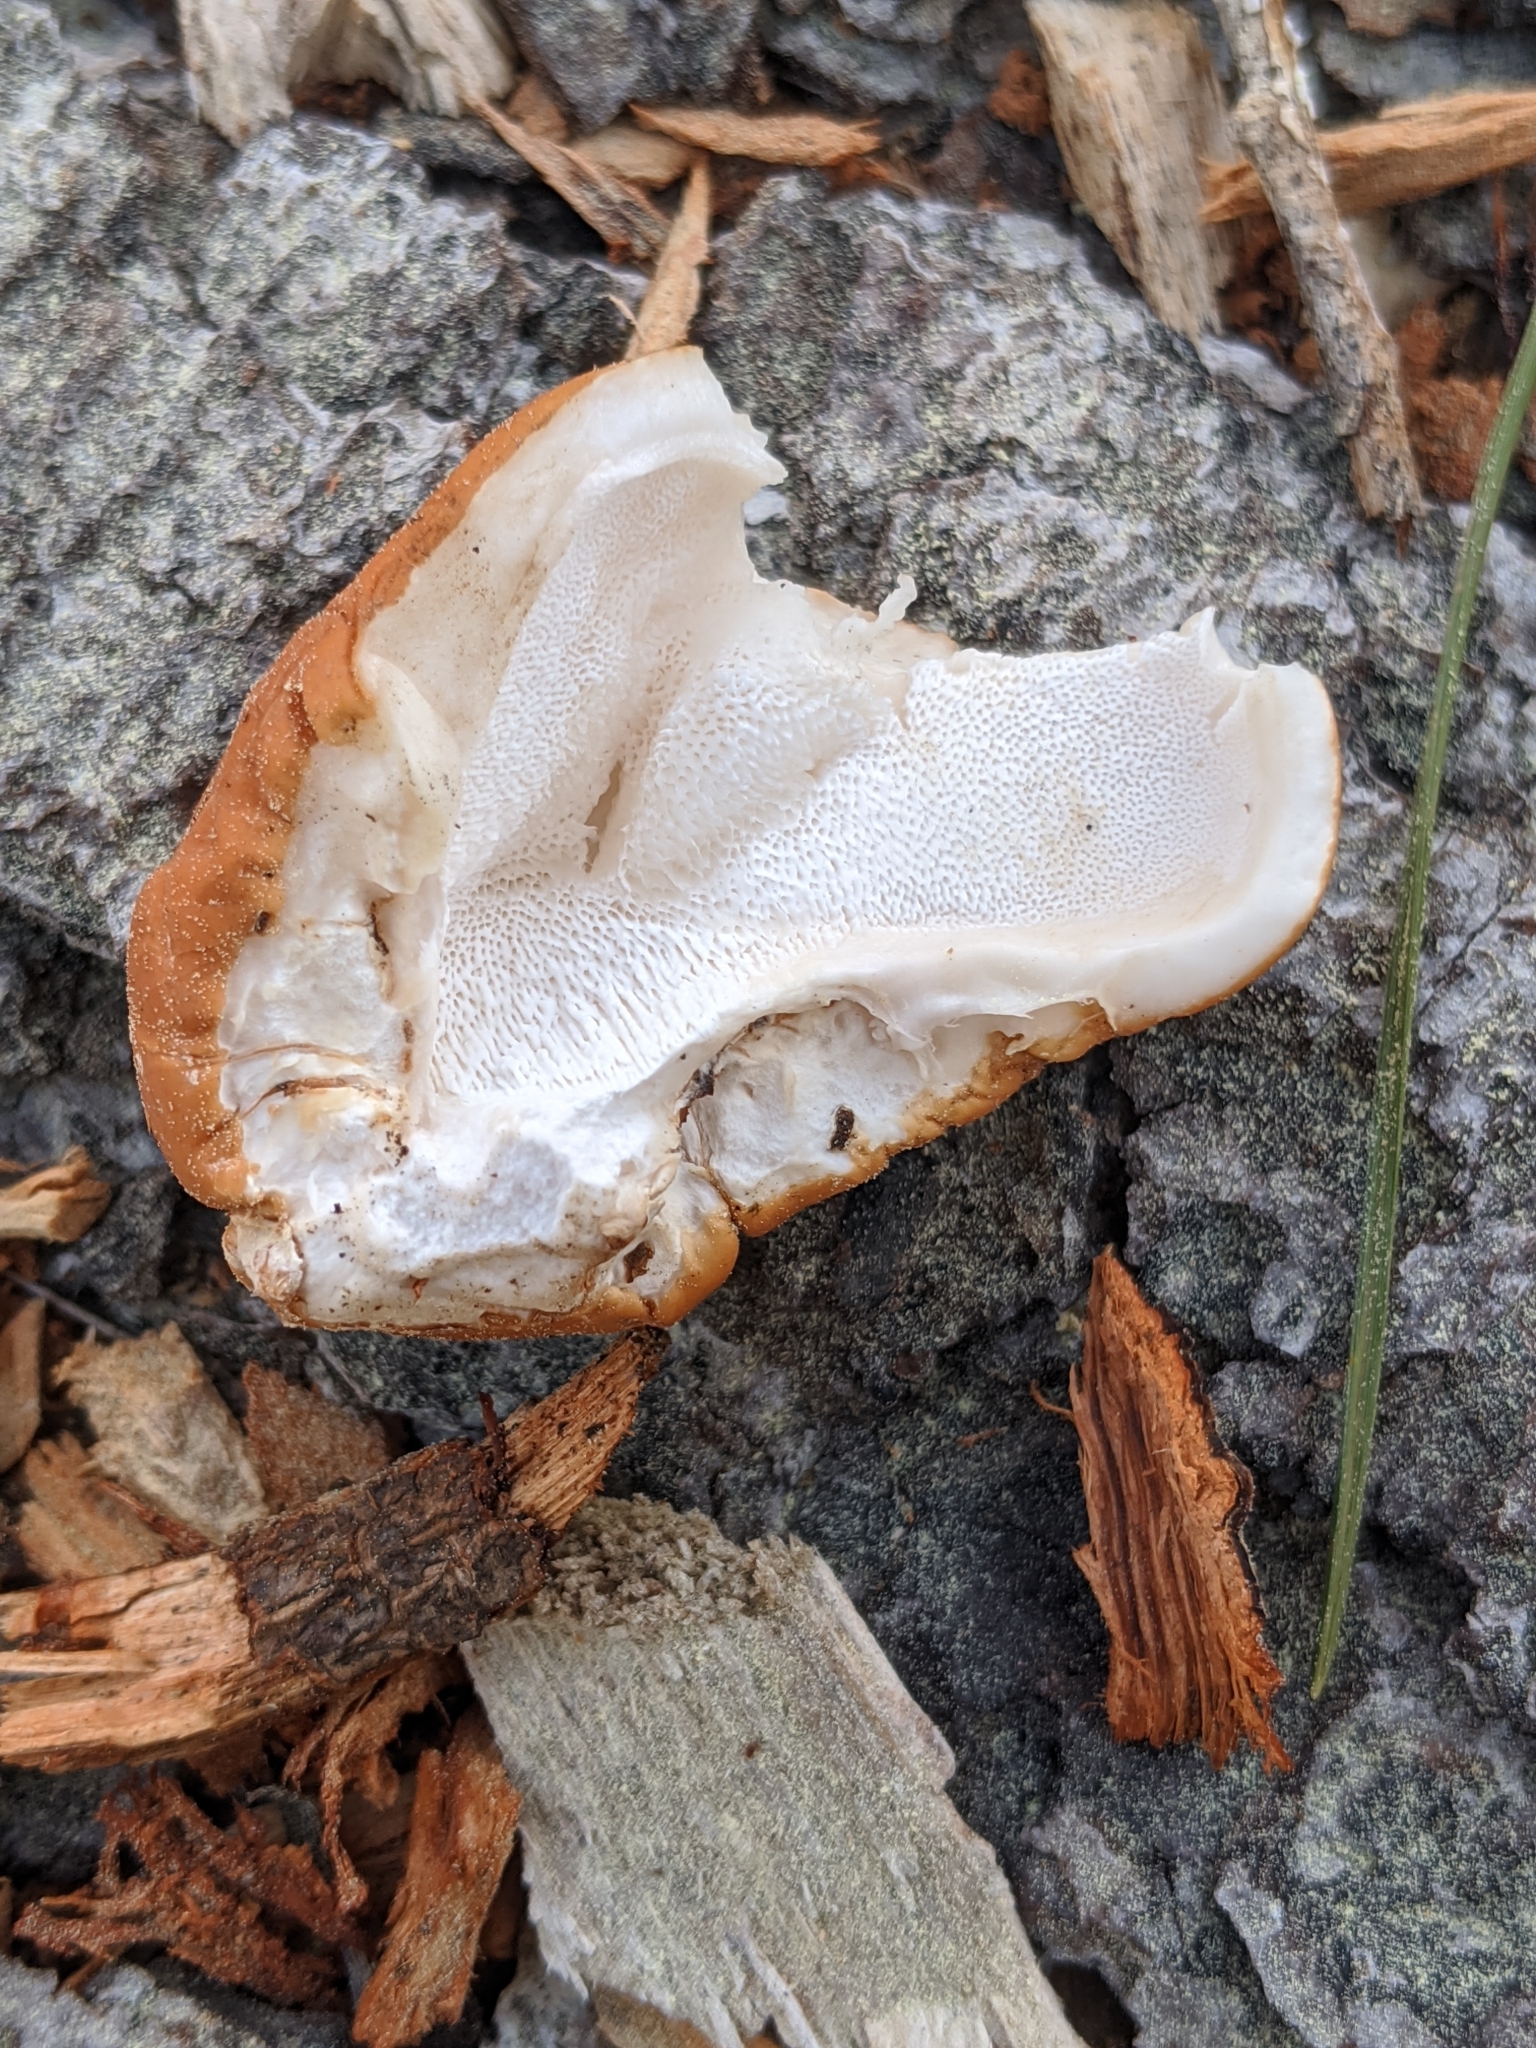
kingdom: Fungi
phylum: Basidiomycota
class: Agaricomycetes
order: Polyporales
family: Polyporaceae
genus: Cryptoporus
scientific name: Cryptoporus volvatus
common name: Veiled polypore
